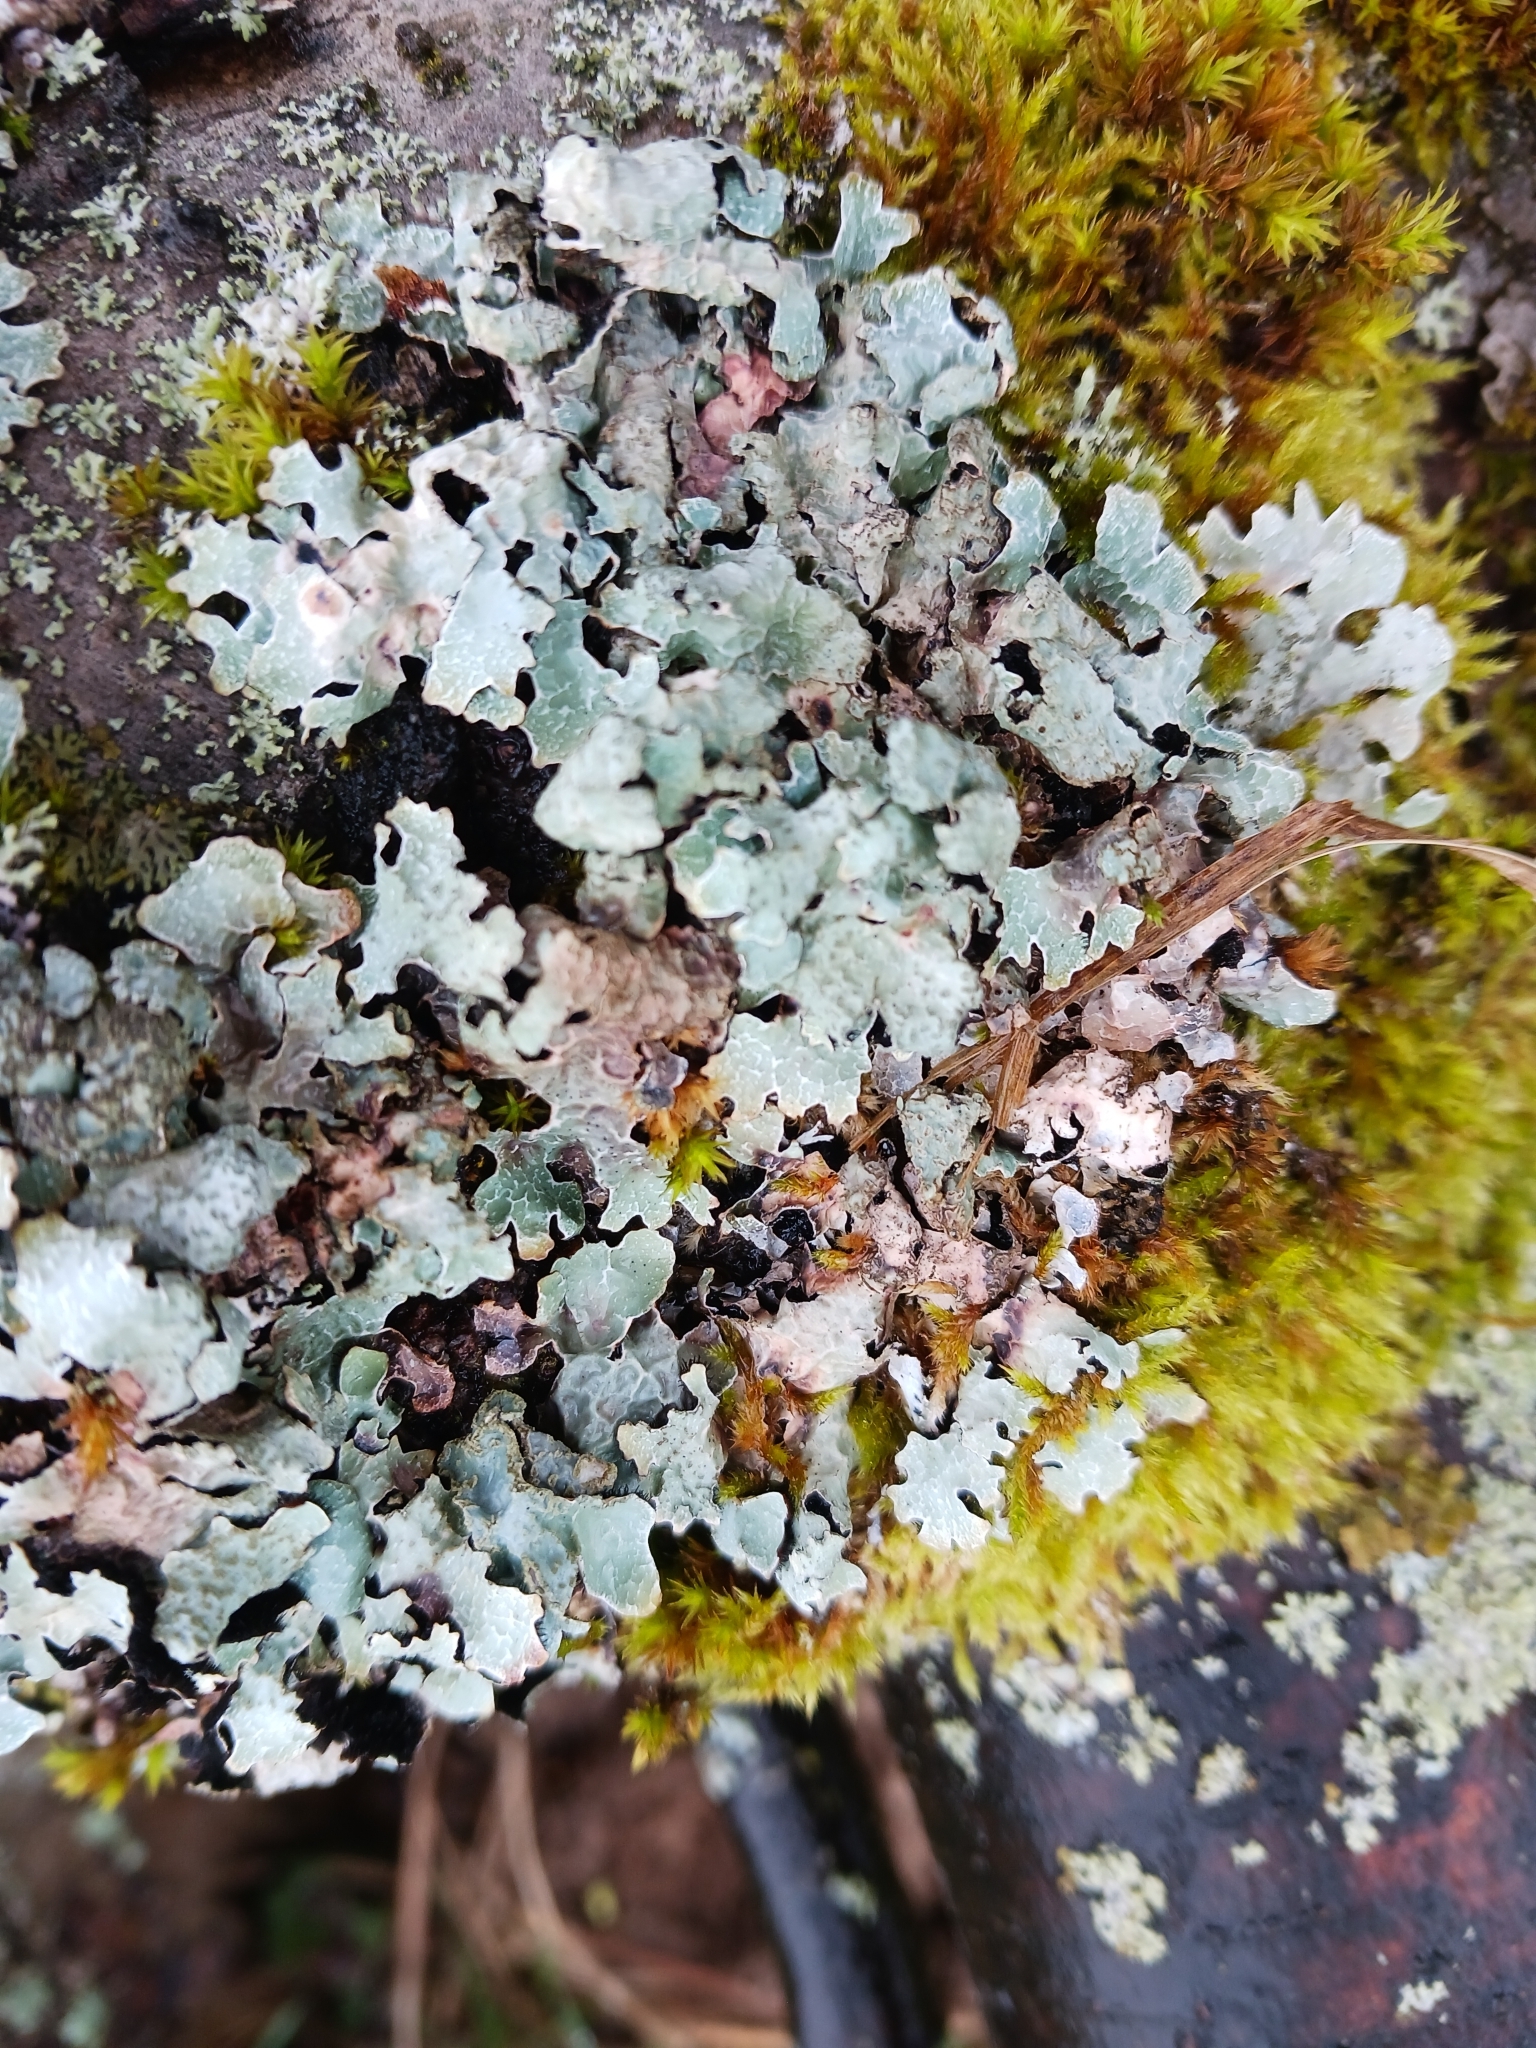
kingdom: Fungi
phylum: Ascomycota
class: Lecanoromycetes
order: Lecanorales
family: Parmeliaceae
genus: Parmelia
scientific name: Parmelia sulcata
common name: Netted shield lichen
